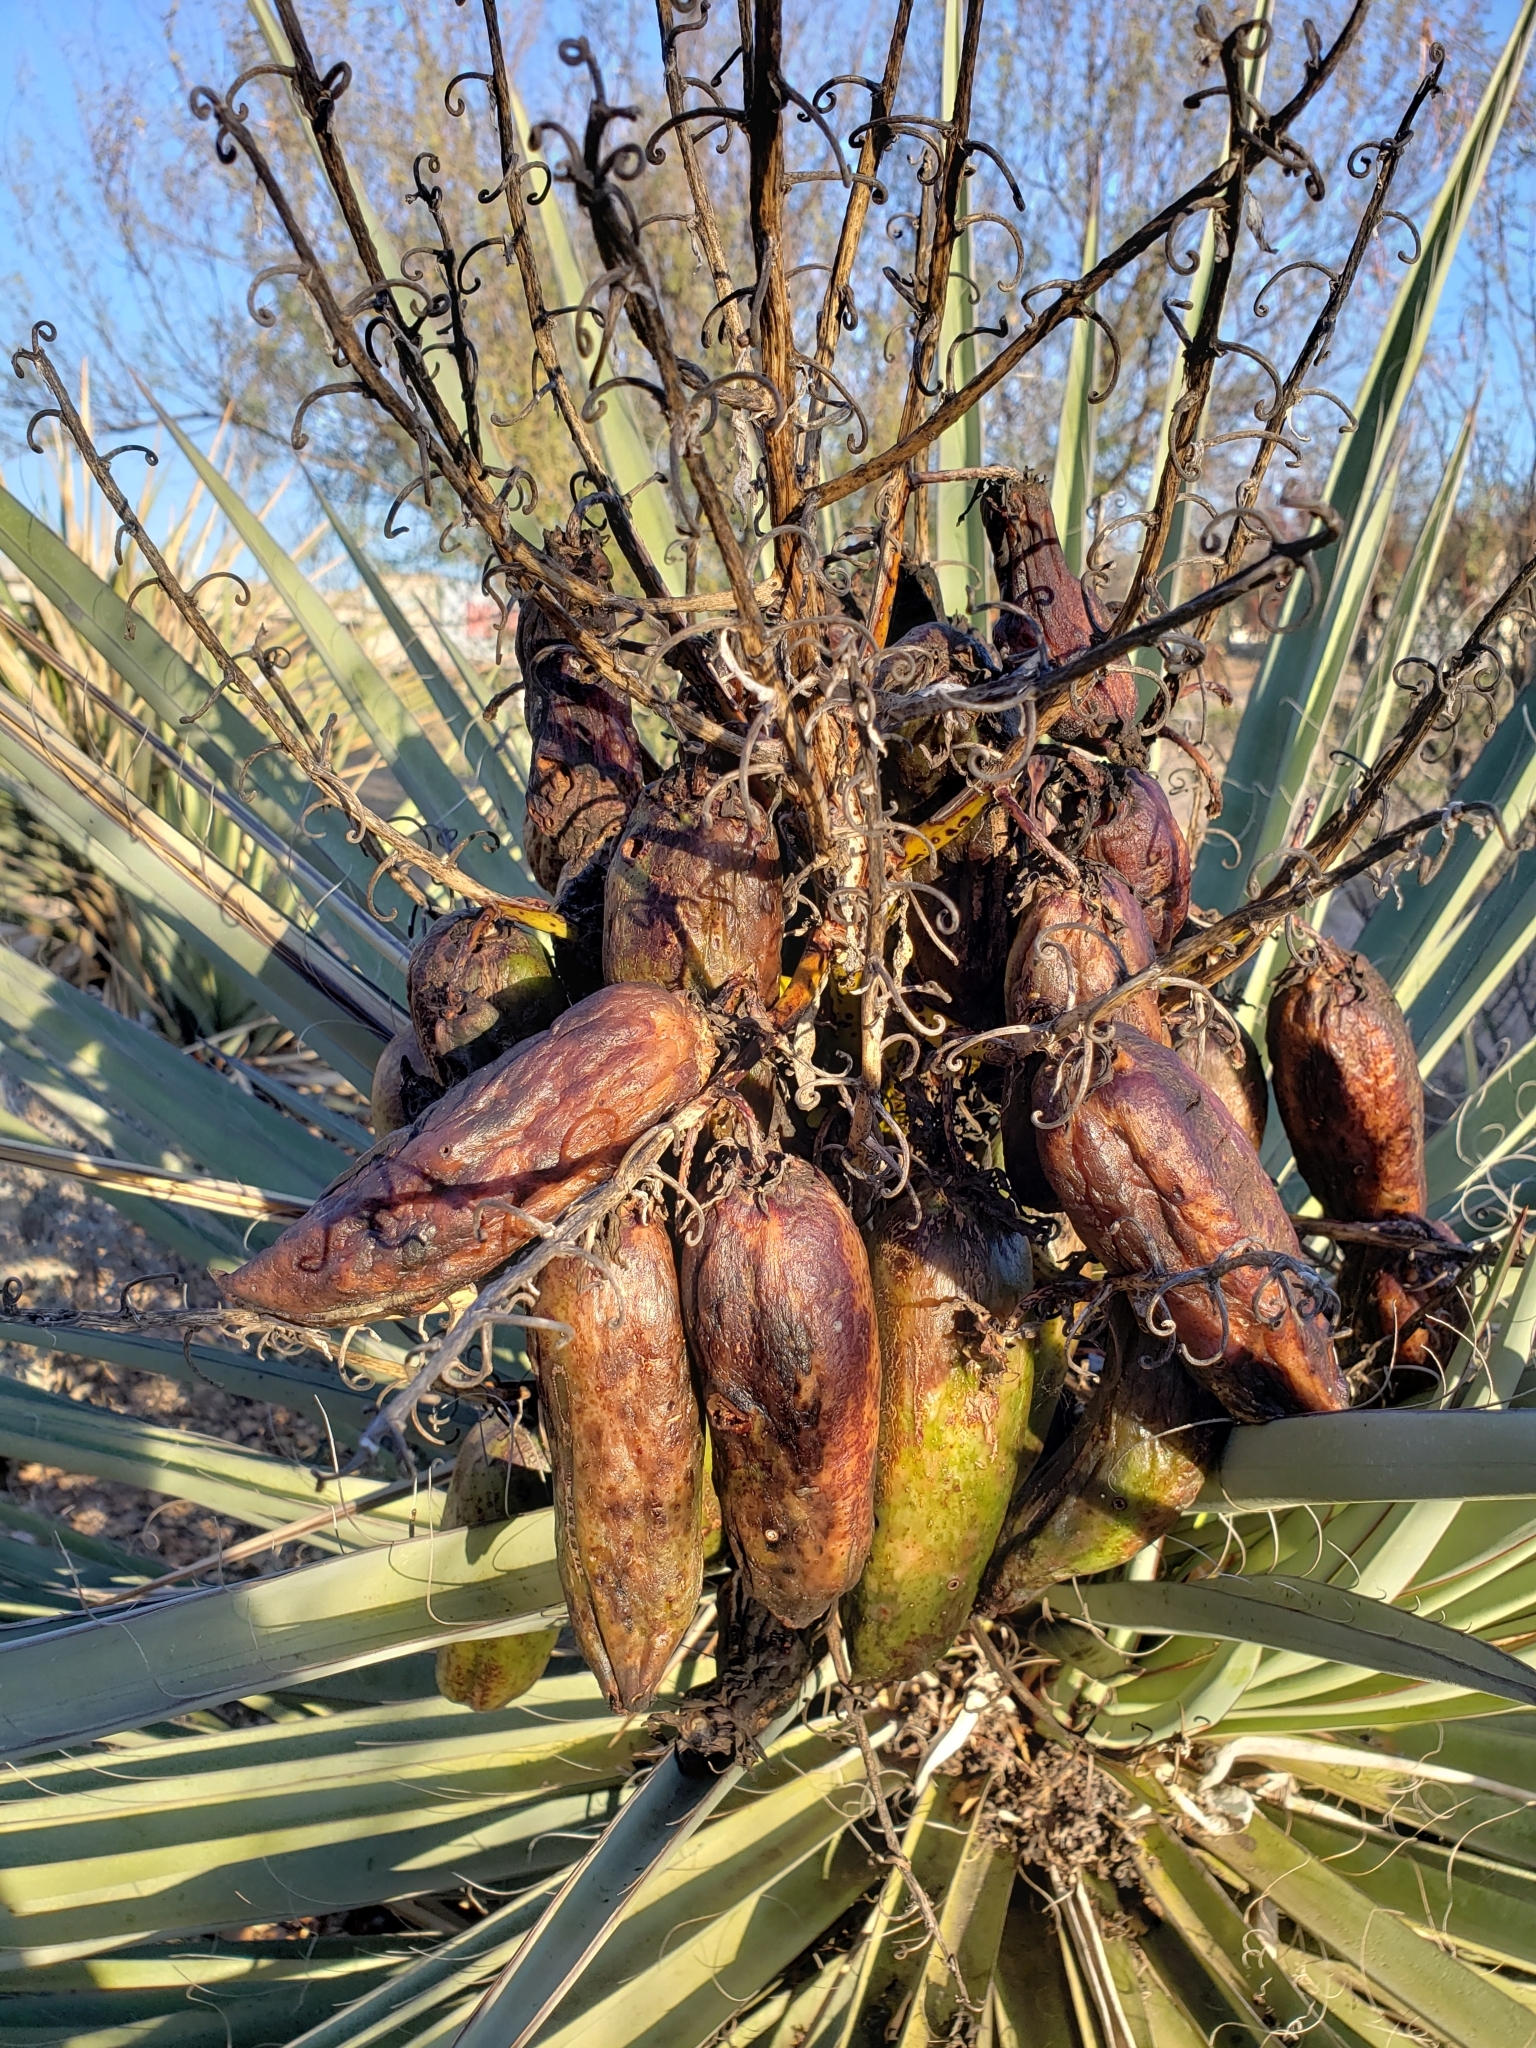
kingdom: Plantae
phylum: Tracheophyta
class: Liliopsida
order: Asparagales
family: Asparagaceae
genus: Yucca
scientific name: Yucca treculiana
